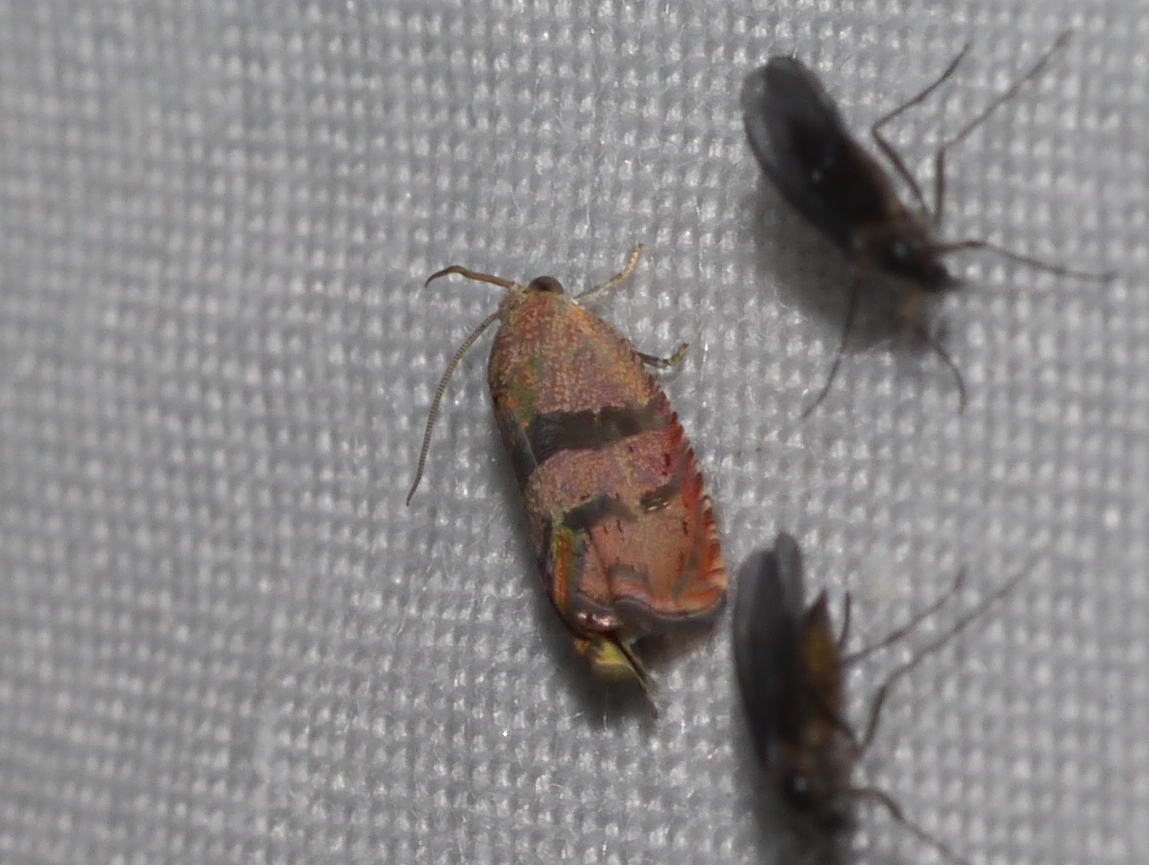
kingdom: Animalia
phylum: Arthropoda
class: Insecta
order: Lepidoptera
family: Tortricidae
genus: Cydia
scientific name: Cydia latiferreana
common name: Filbertworm moth
